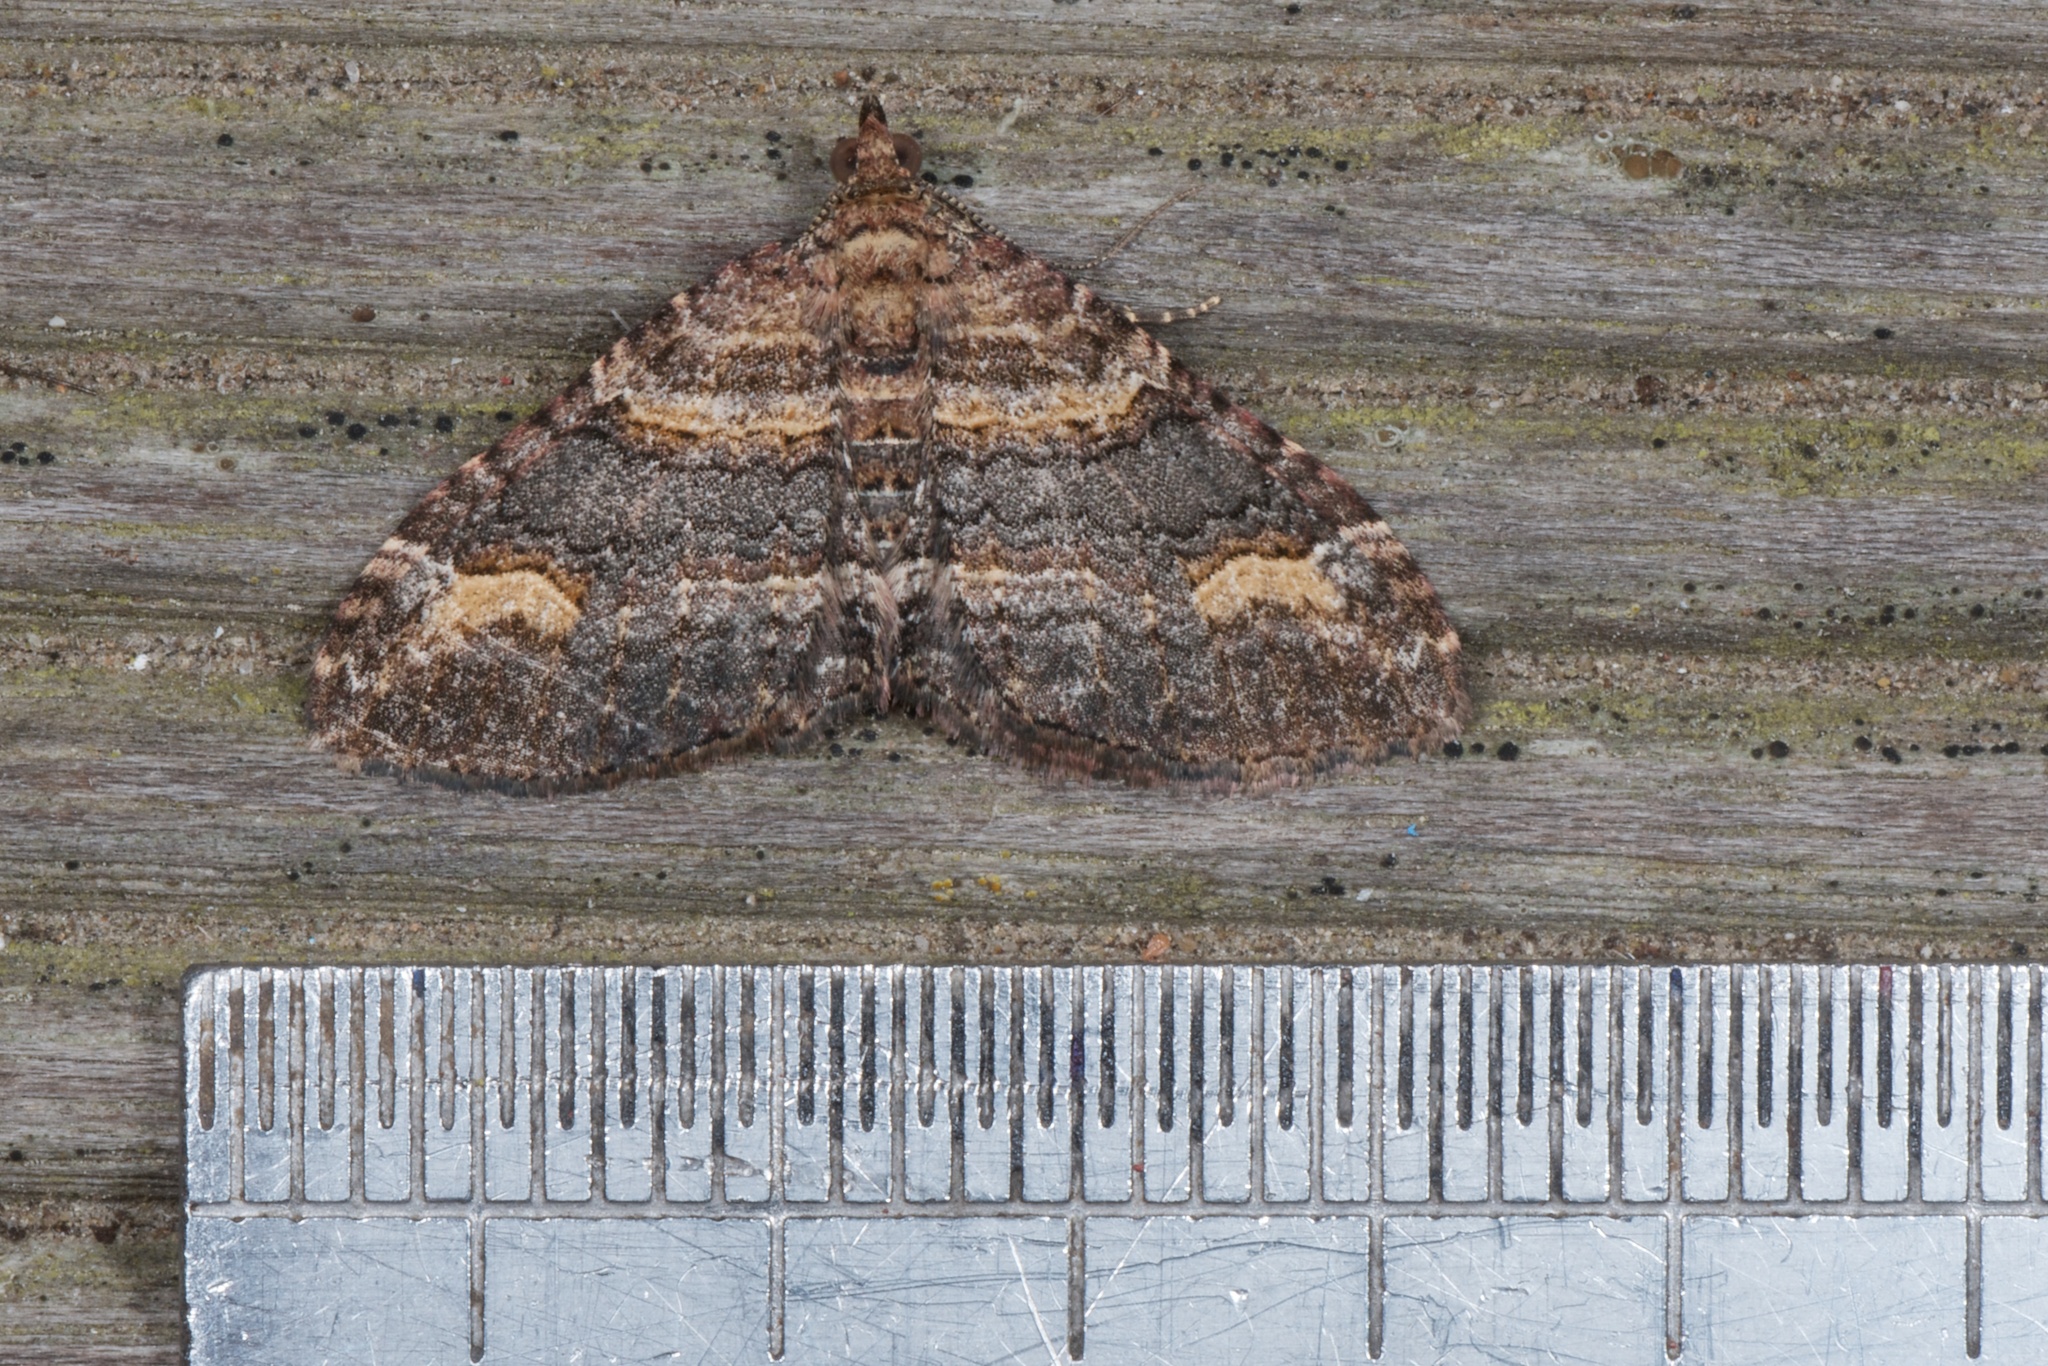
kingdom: Animalia
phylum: Arthropoda
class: Insecta
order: Lepidoptera
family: Geometridae
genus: Epyaxa
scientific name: Epyaxa lucidata
